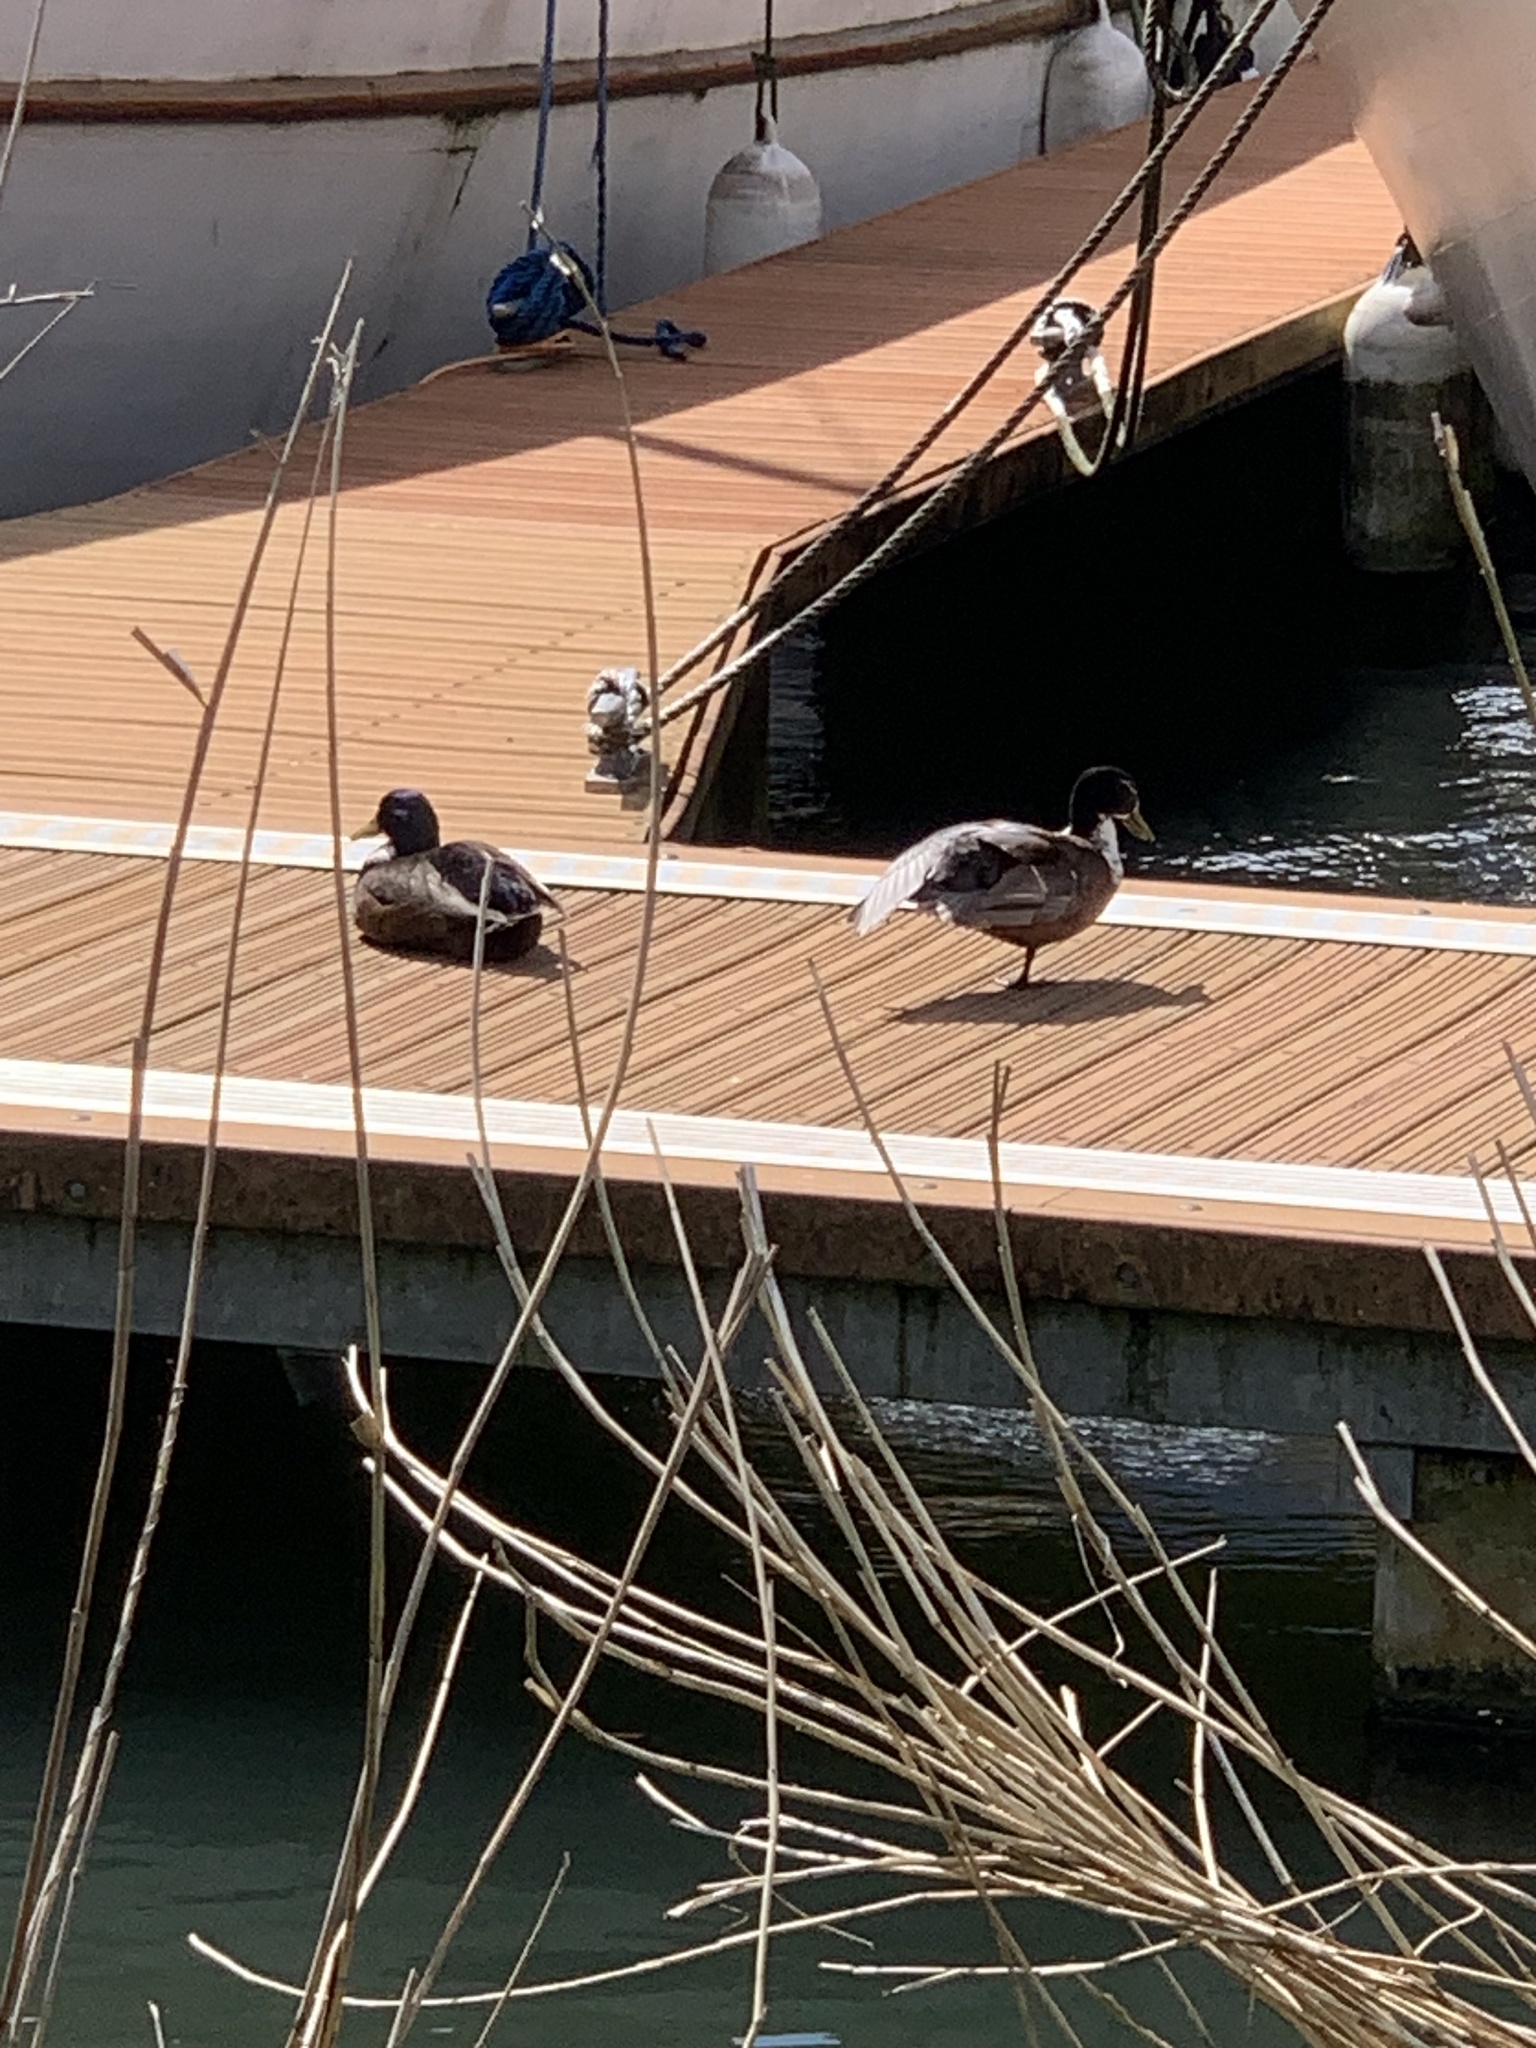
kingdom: Animalia
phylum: Chordata
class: Aves
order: Anseriformes
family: Anatidae
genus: Anas
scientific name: Anas platyrhynchos
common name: Mallard
